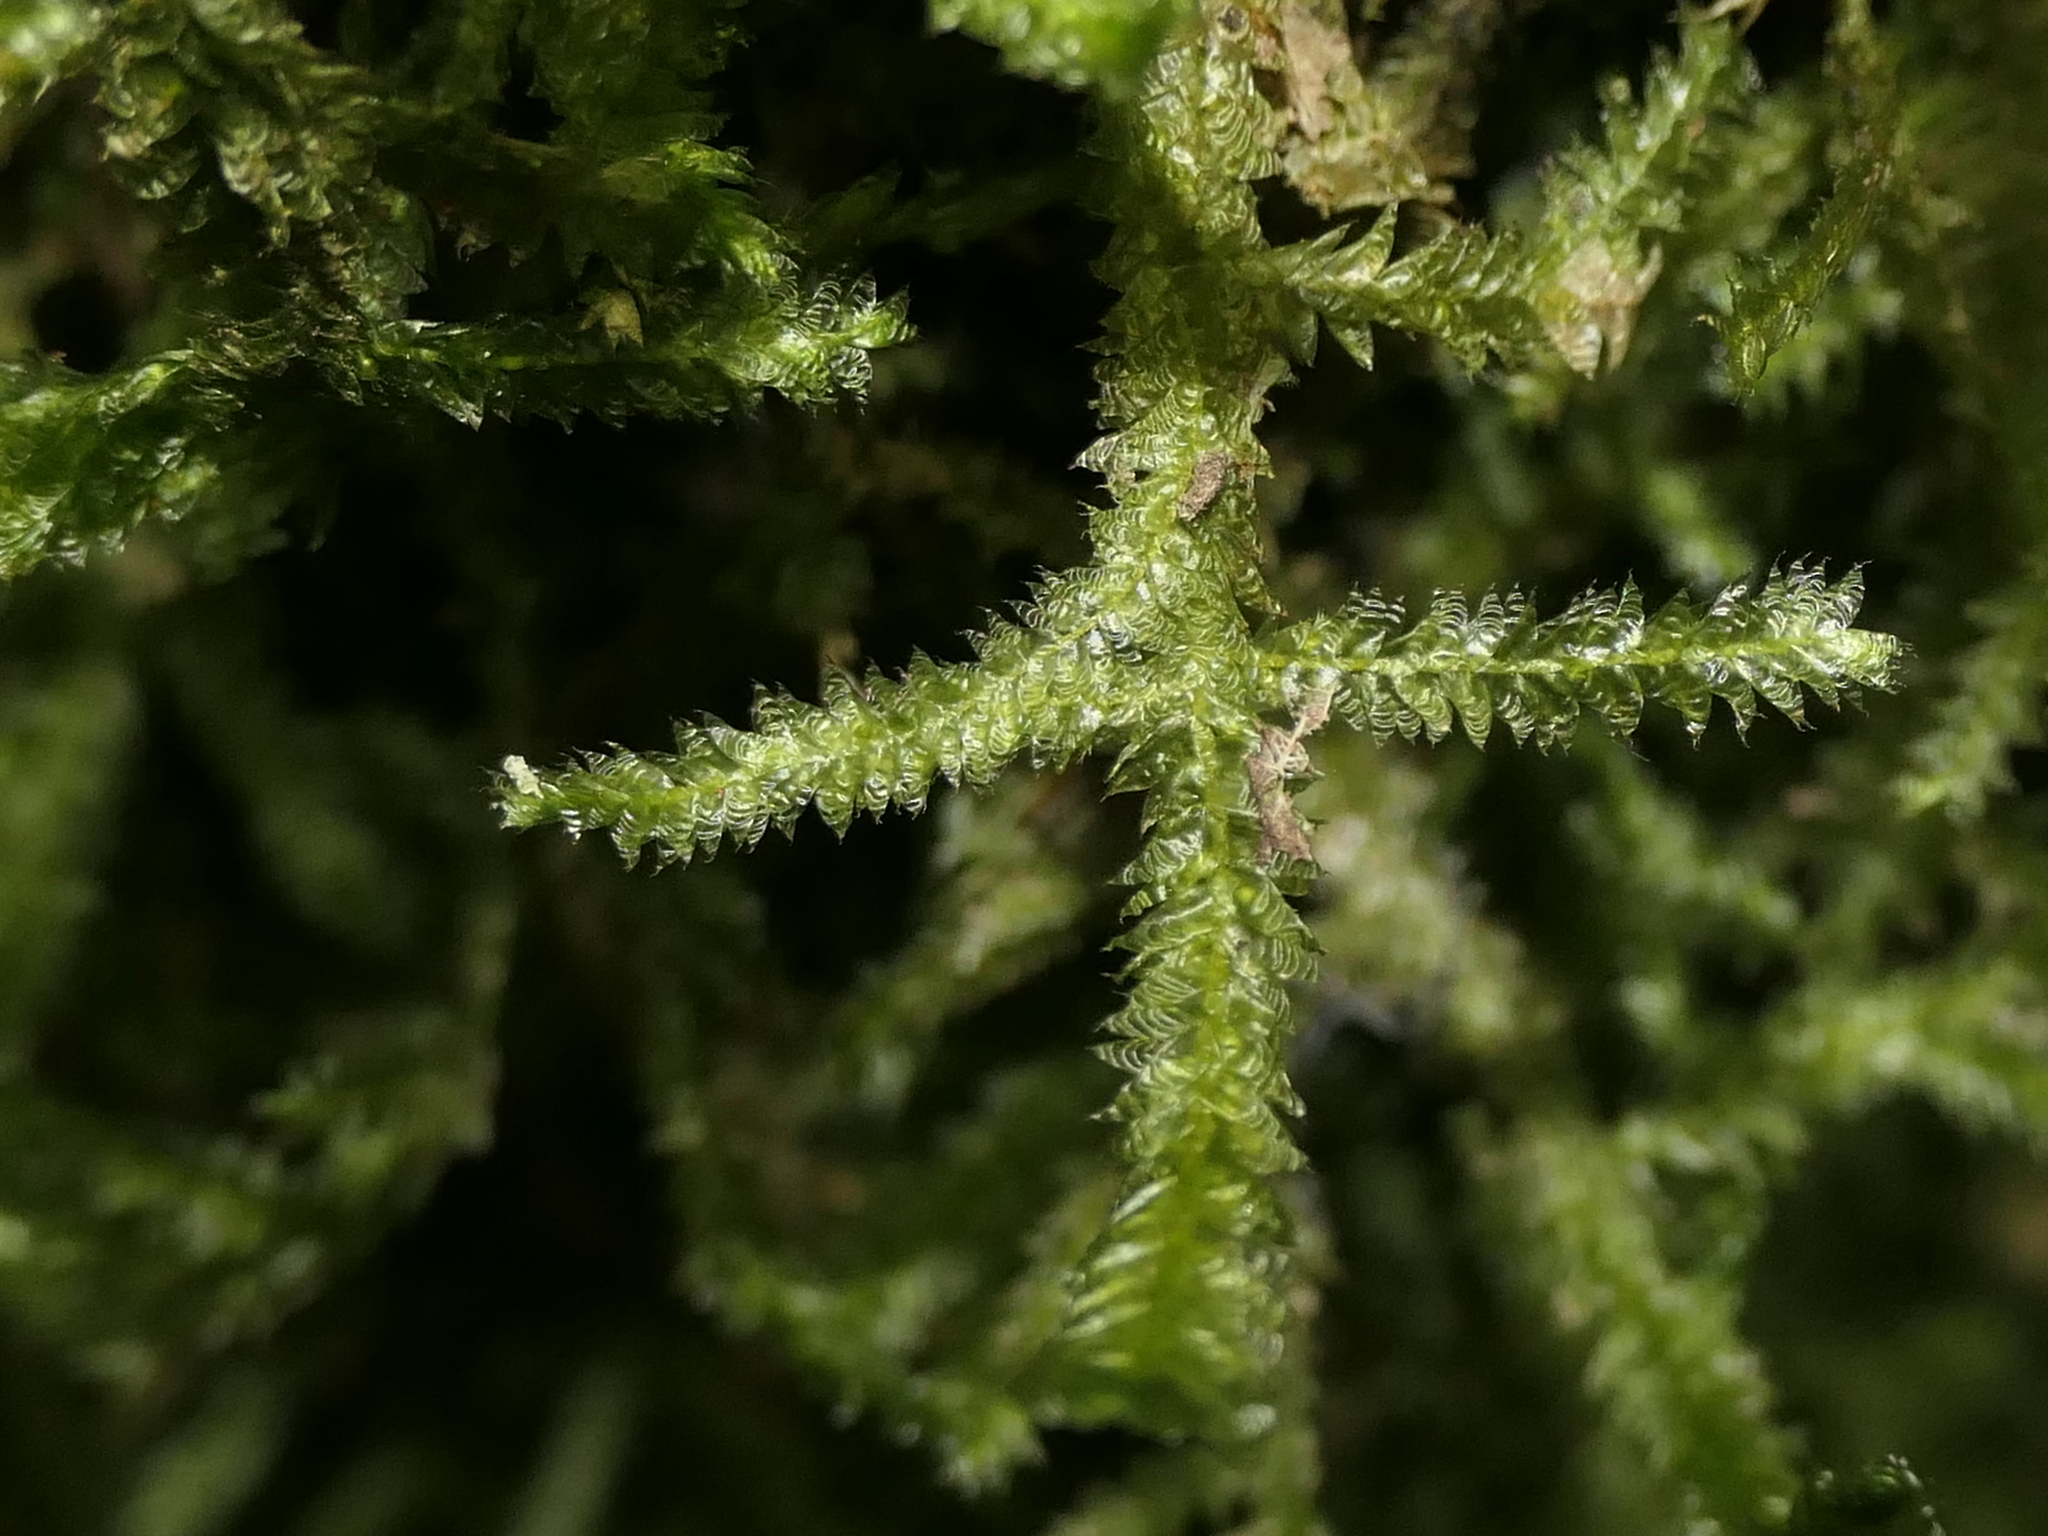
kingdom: Plantae
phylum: Bryophyta
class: Bryopsida
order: Hypnales
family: Neckeraceae
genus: Alleniella
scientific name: Alleniella hymenodonta
